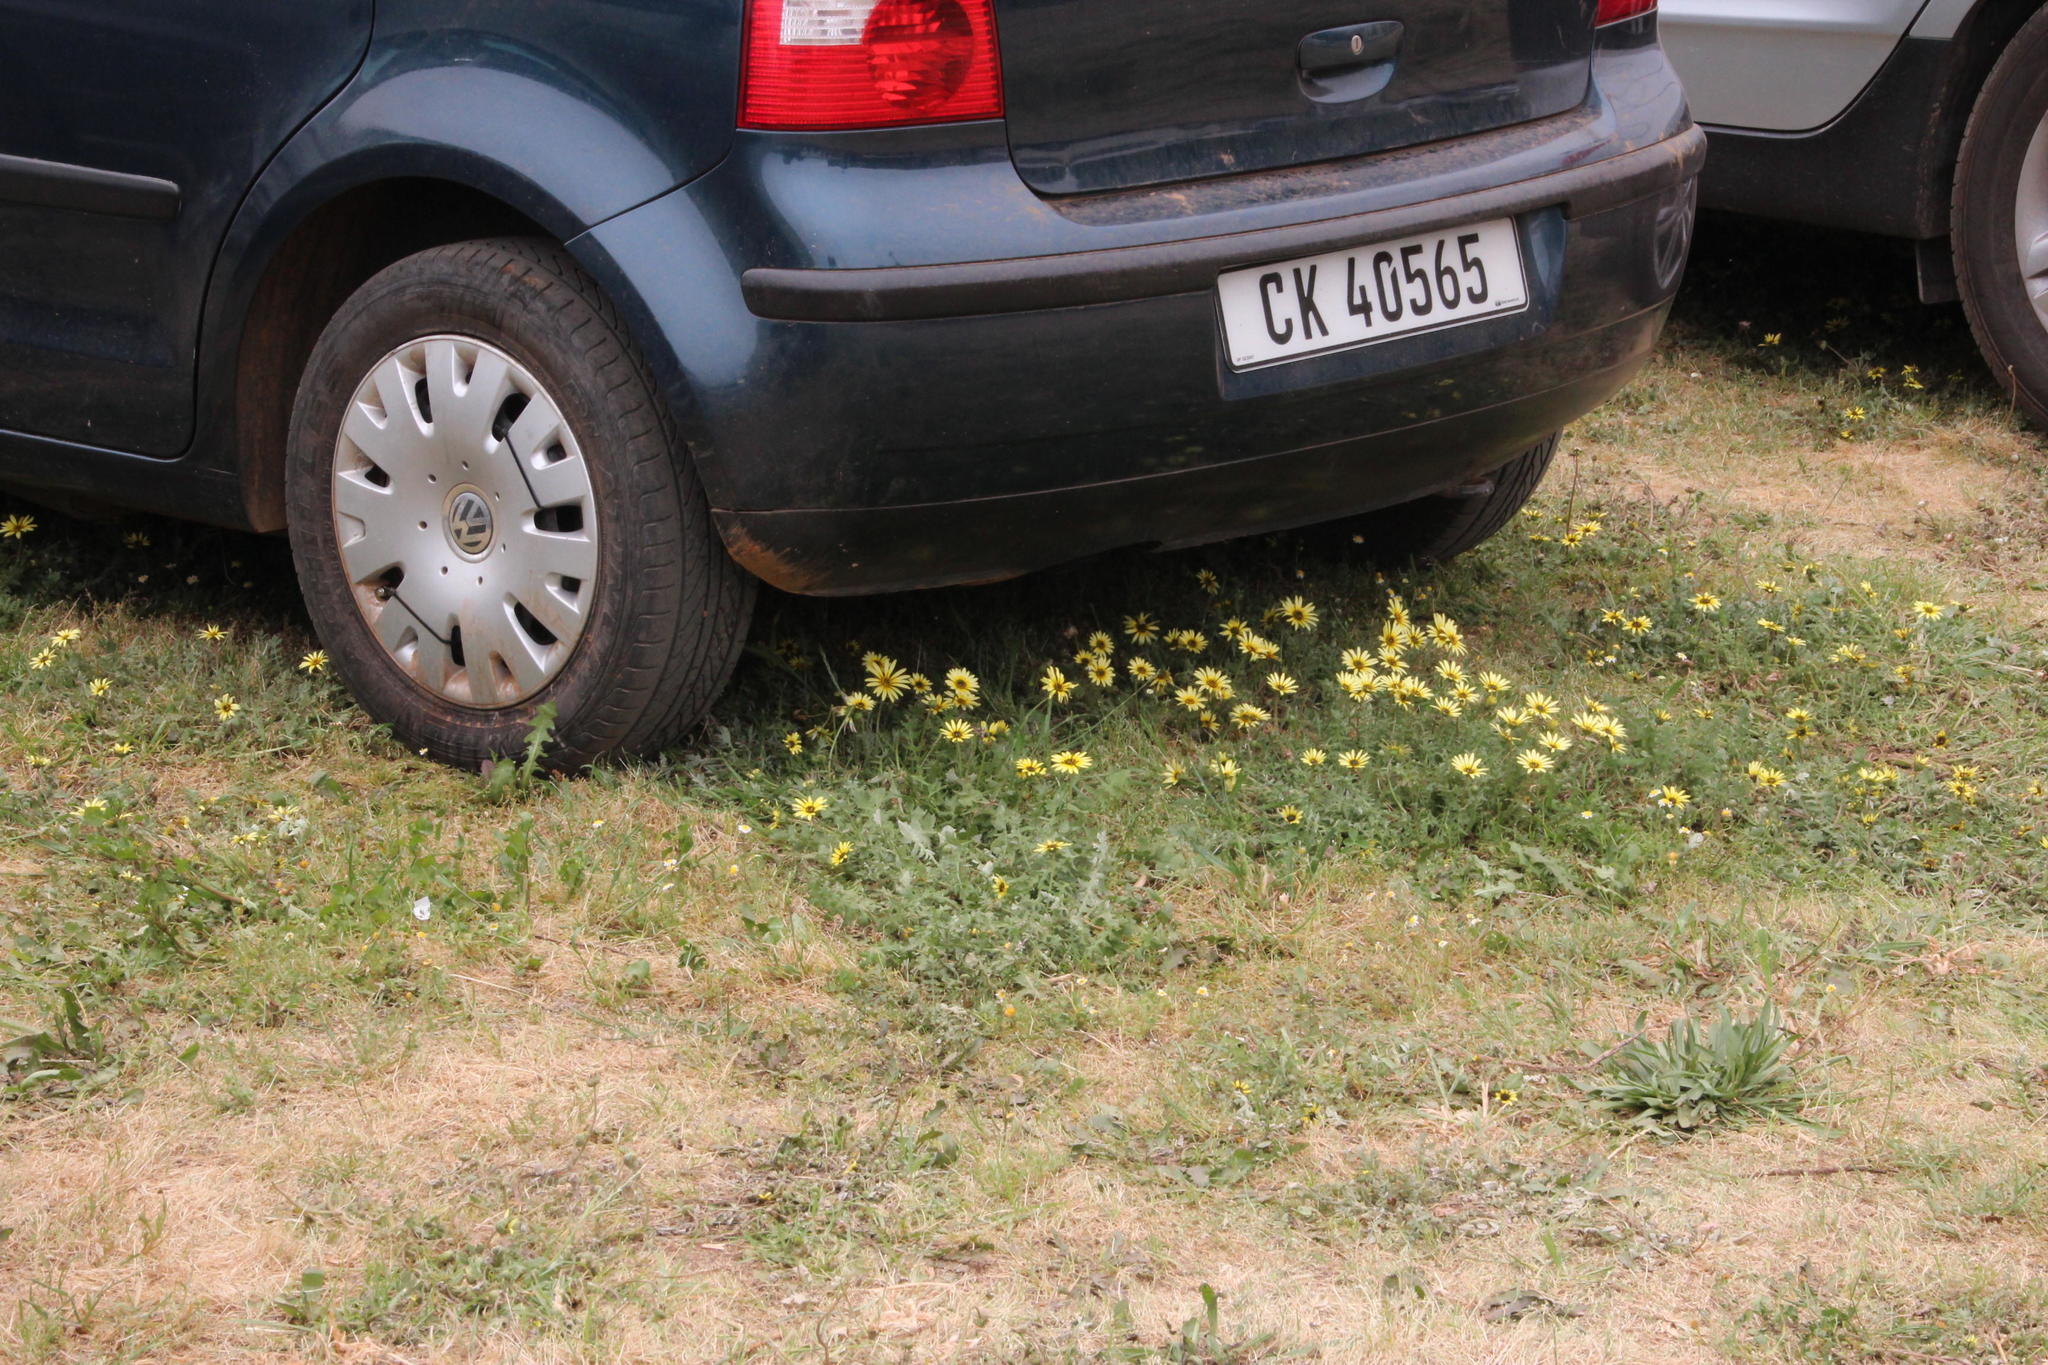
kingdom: Plantae
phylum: Tracheophyta
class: Magnoliopsida
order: Asterales
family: Asteraceae
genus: Arctotheca
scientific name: Arctotheca calendula
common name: Capeweed
